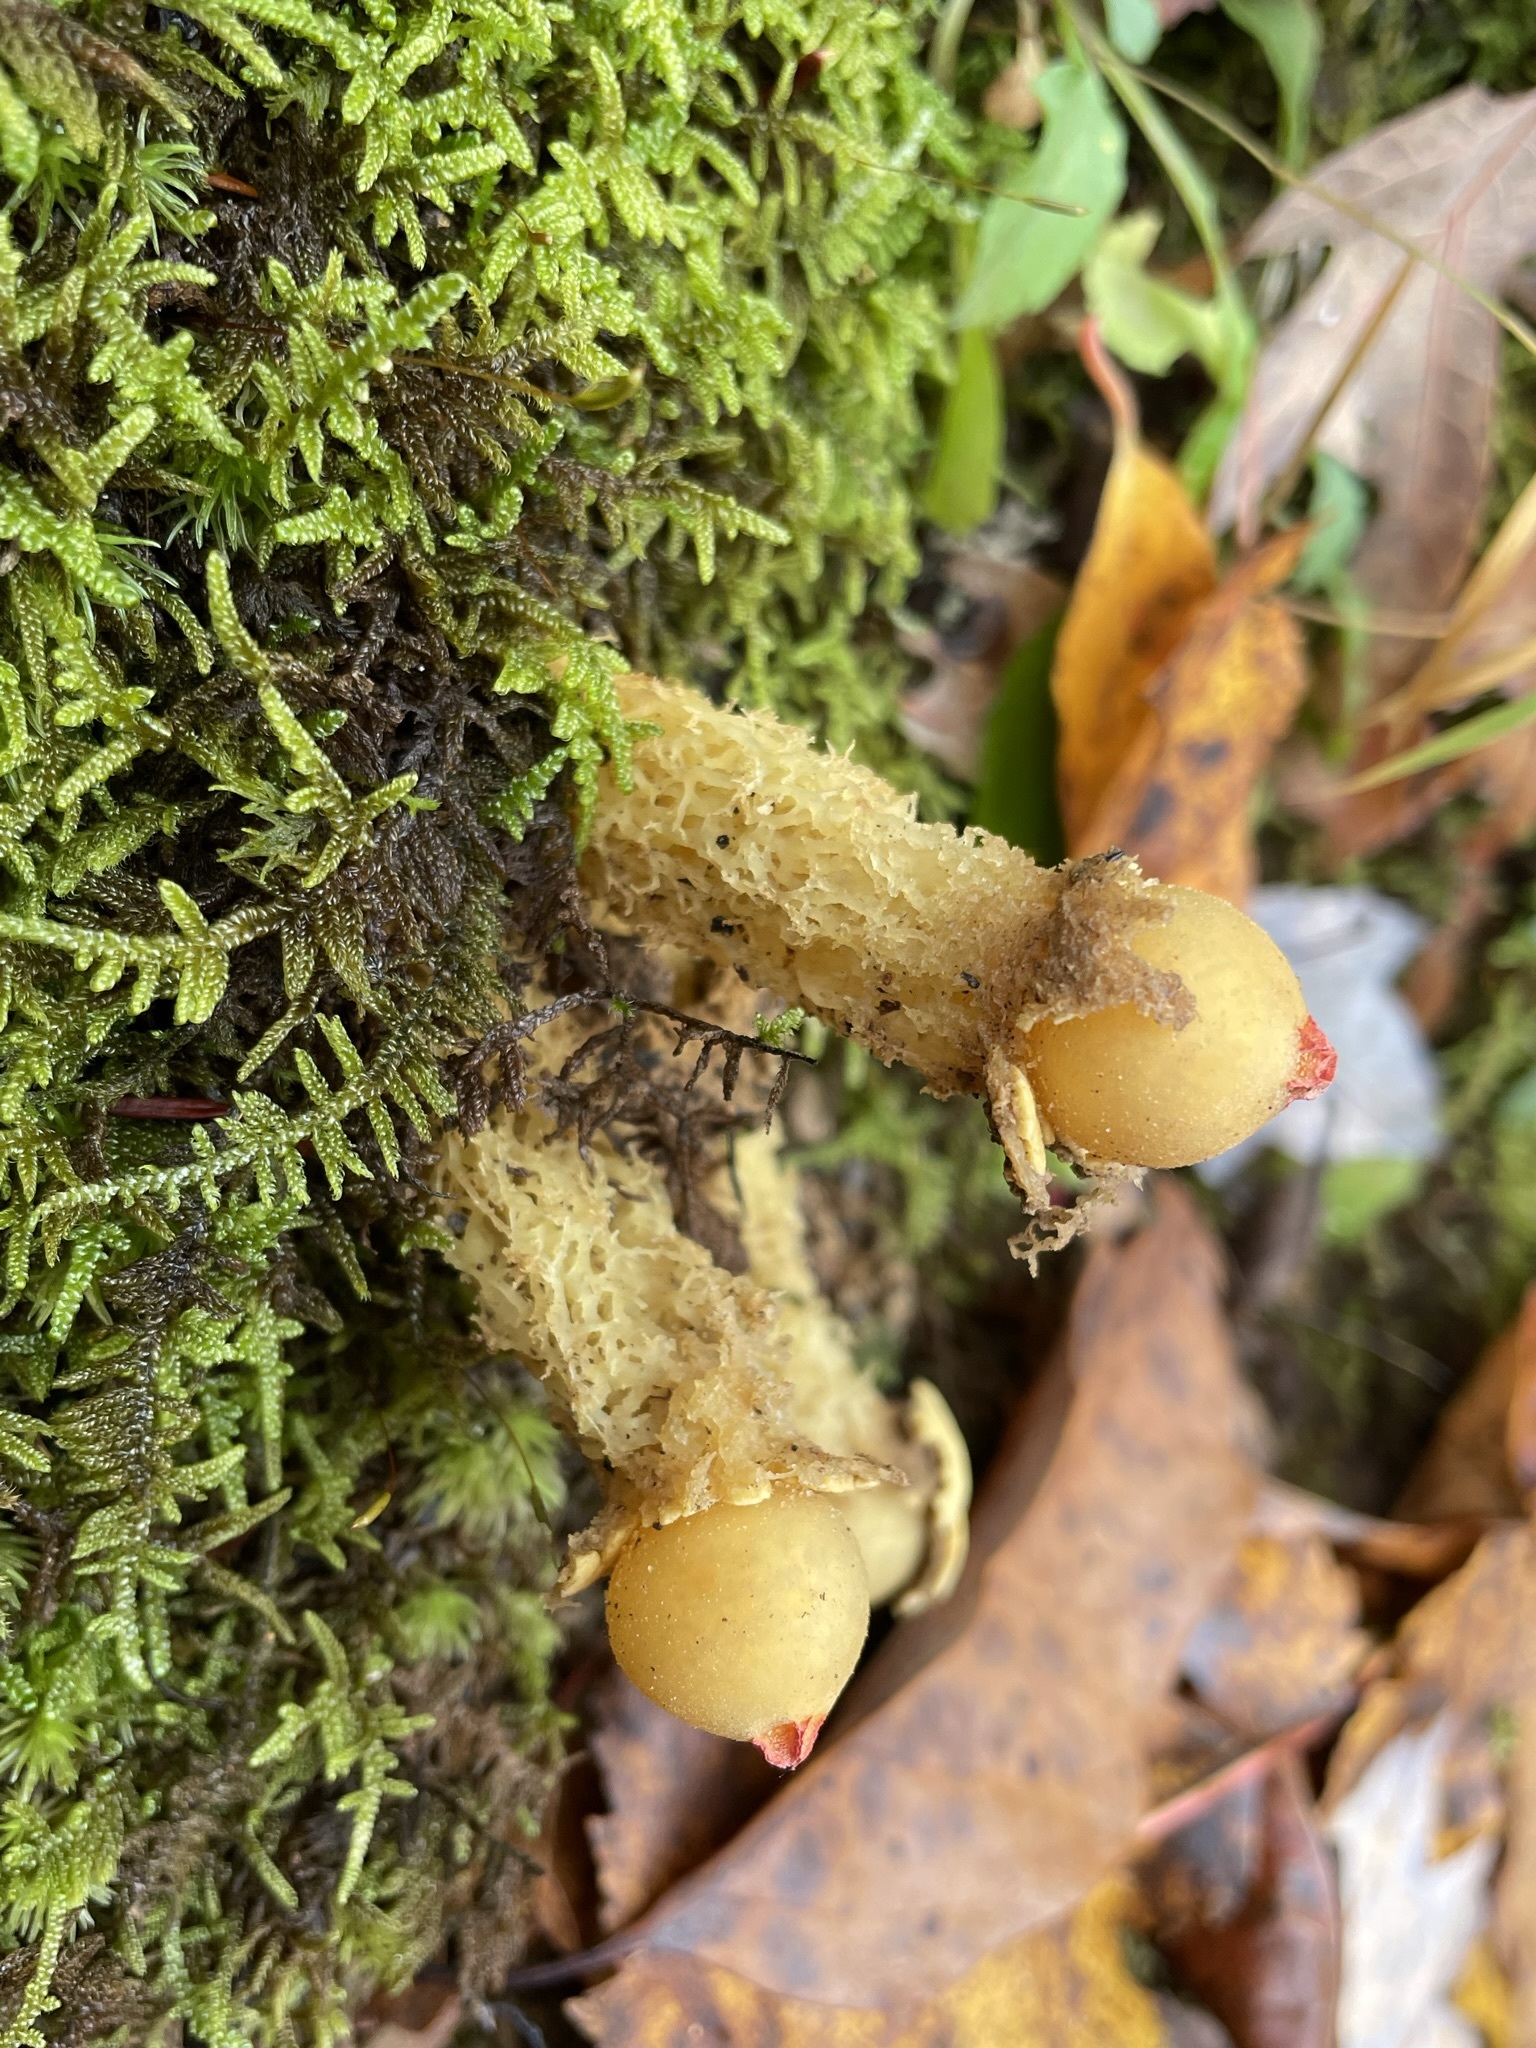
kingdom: Fungi
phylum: Basidiomycota
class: Agaricomycetes
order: Boletales
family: Calostomataceae
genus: Calostoma
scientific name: Calostoma lutescens
